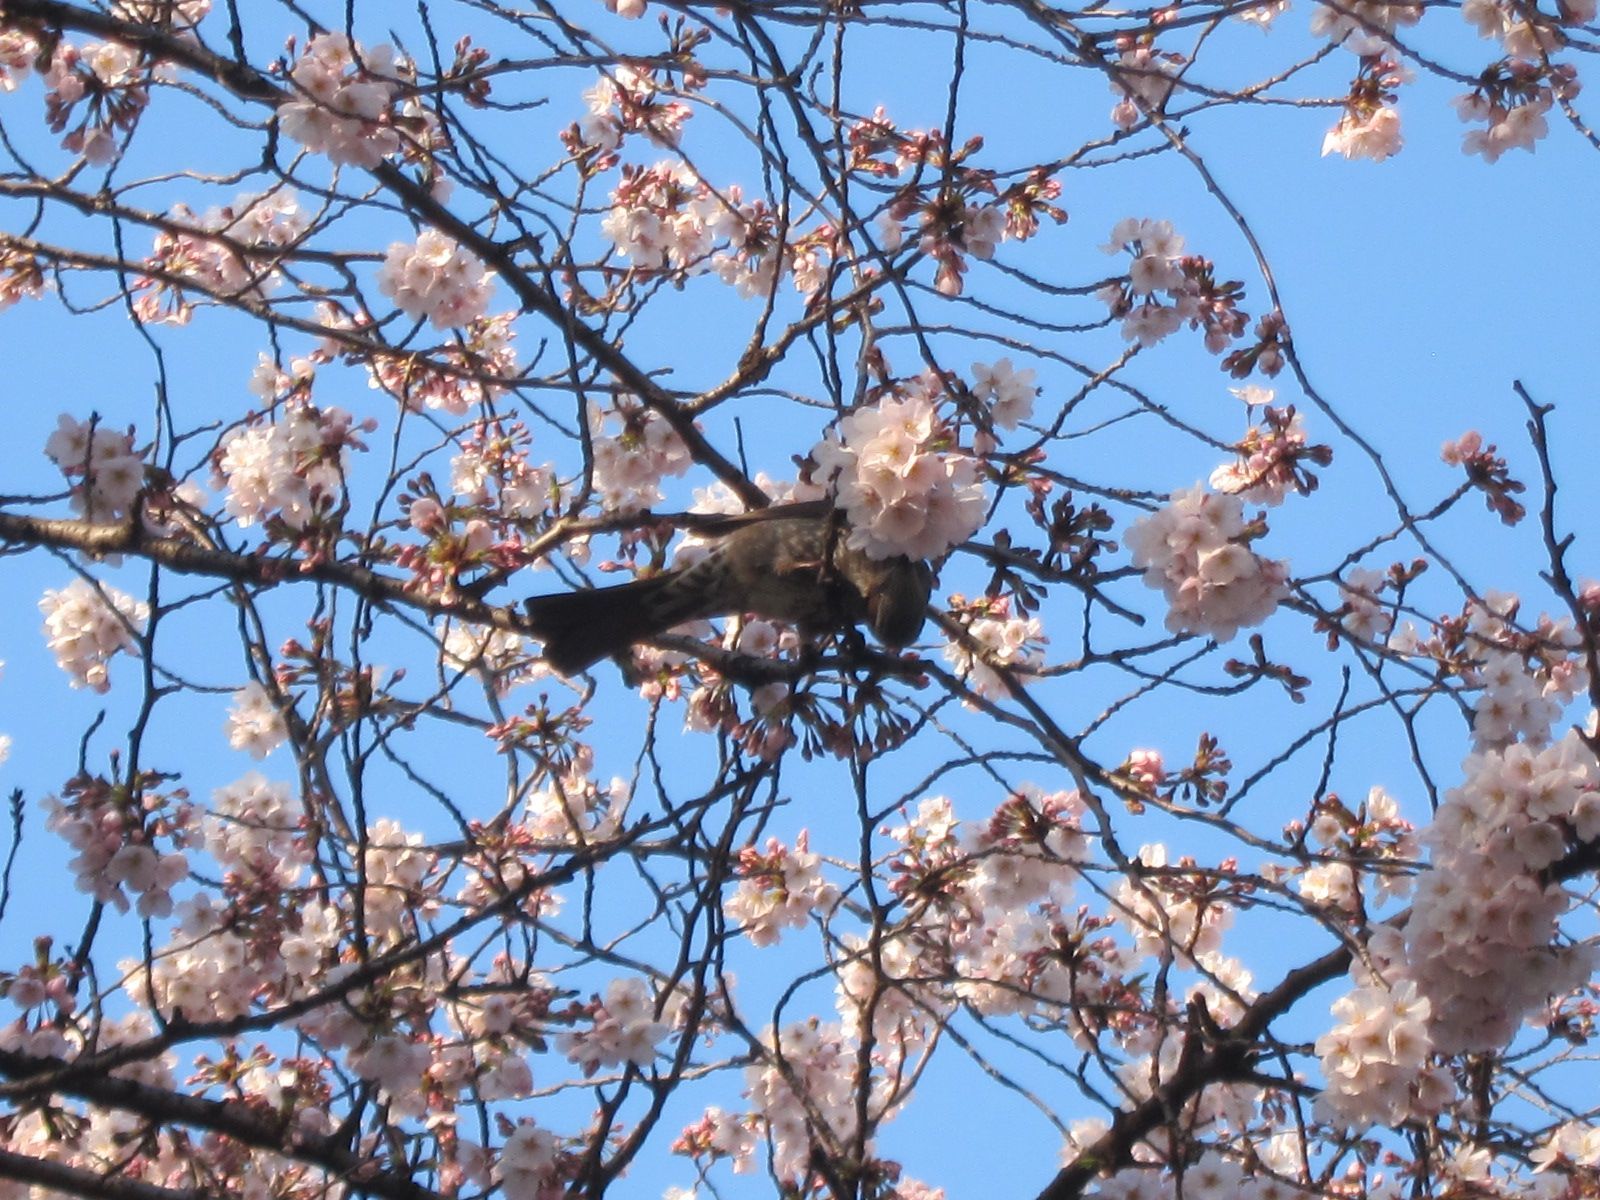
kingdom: Animalia
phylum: Chordata
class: Aves
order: Passeriformes
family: Pycnonotidae
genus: Hypsipetes
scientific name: Hypsipetes amaurotis
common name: Brown-eared bulbul
